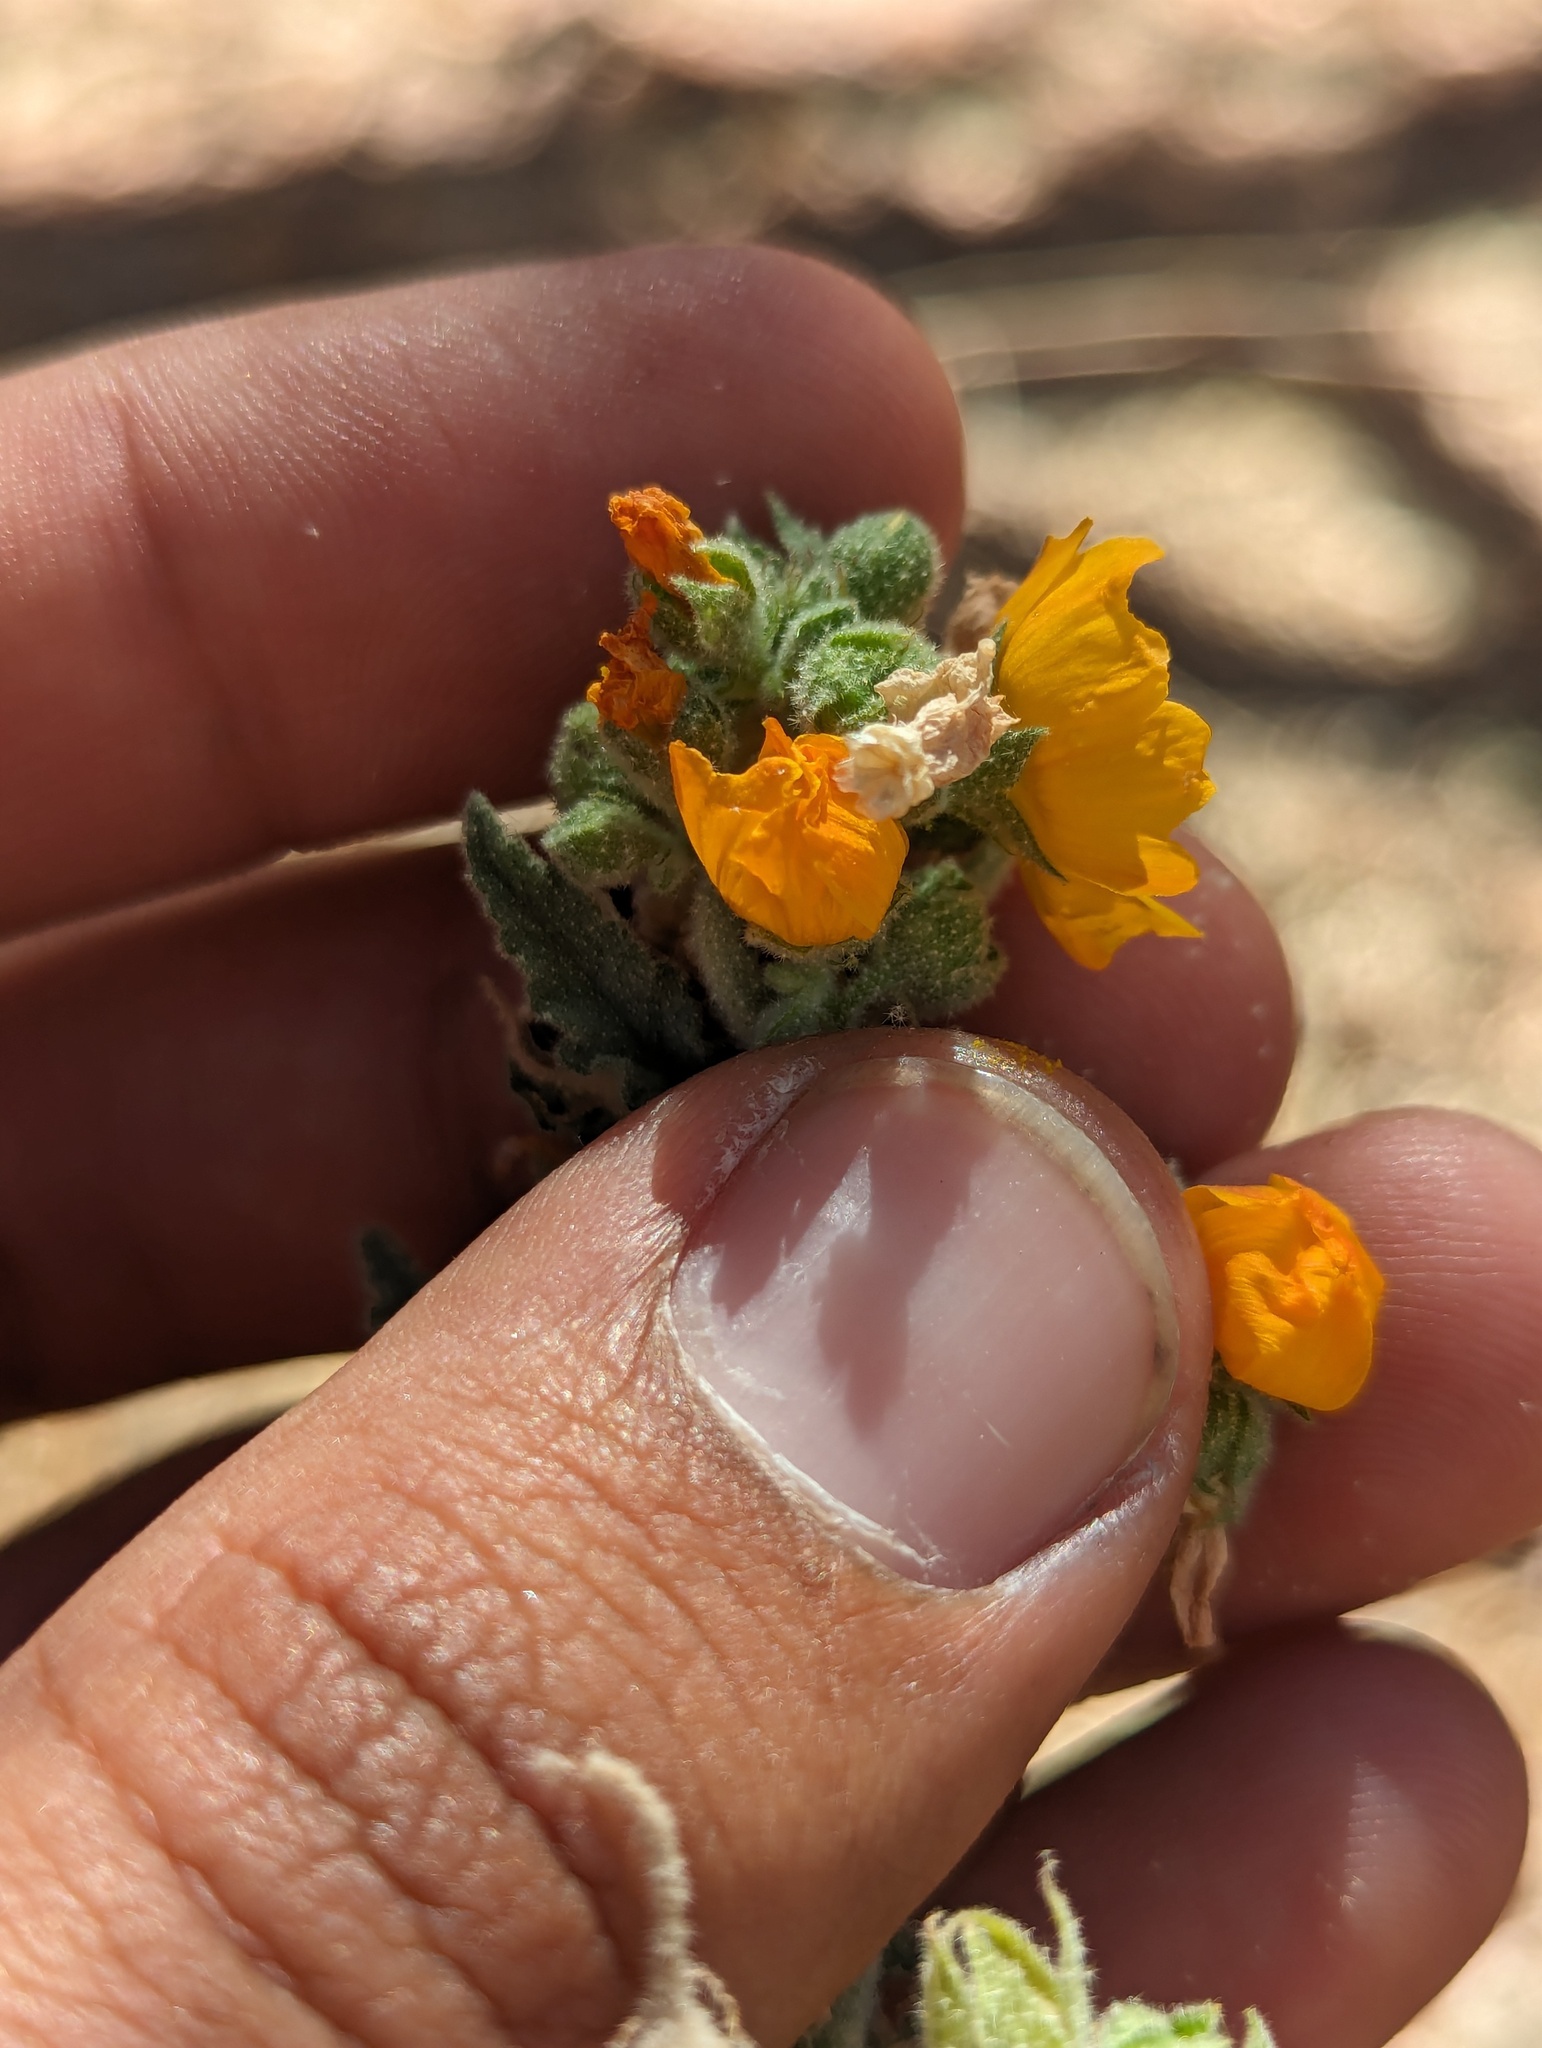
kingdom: Plantae
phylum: Tracheophyta
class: Magnoliopsida
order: Malvales
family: Malvaceae
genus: Sphaeralcea
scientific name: Sphaeralcea coulteri
